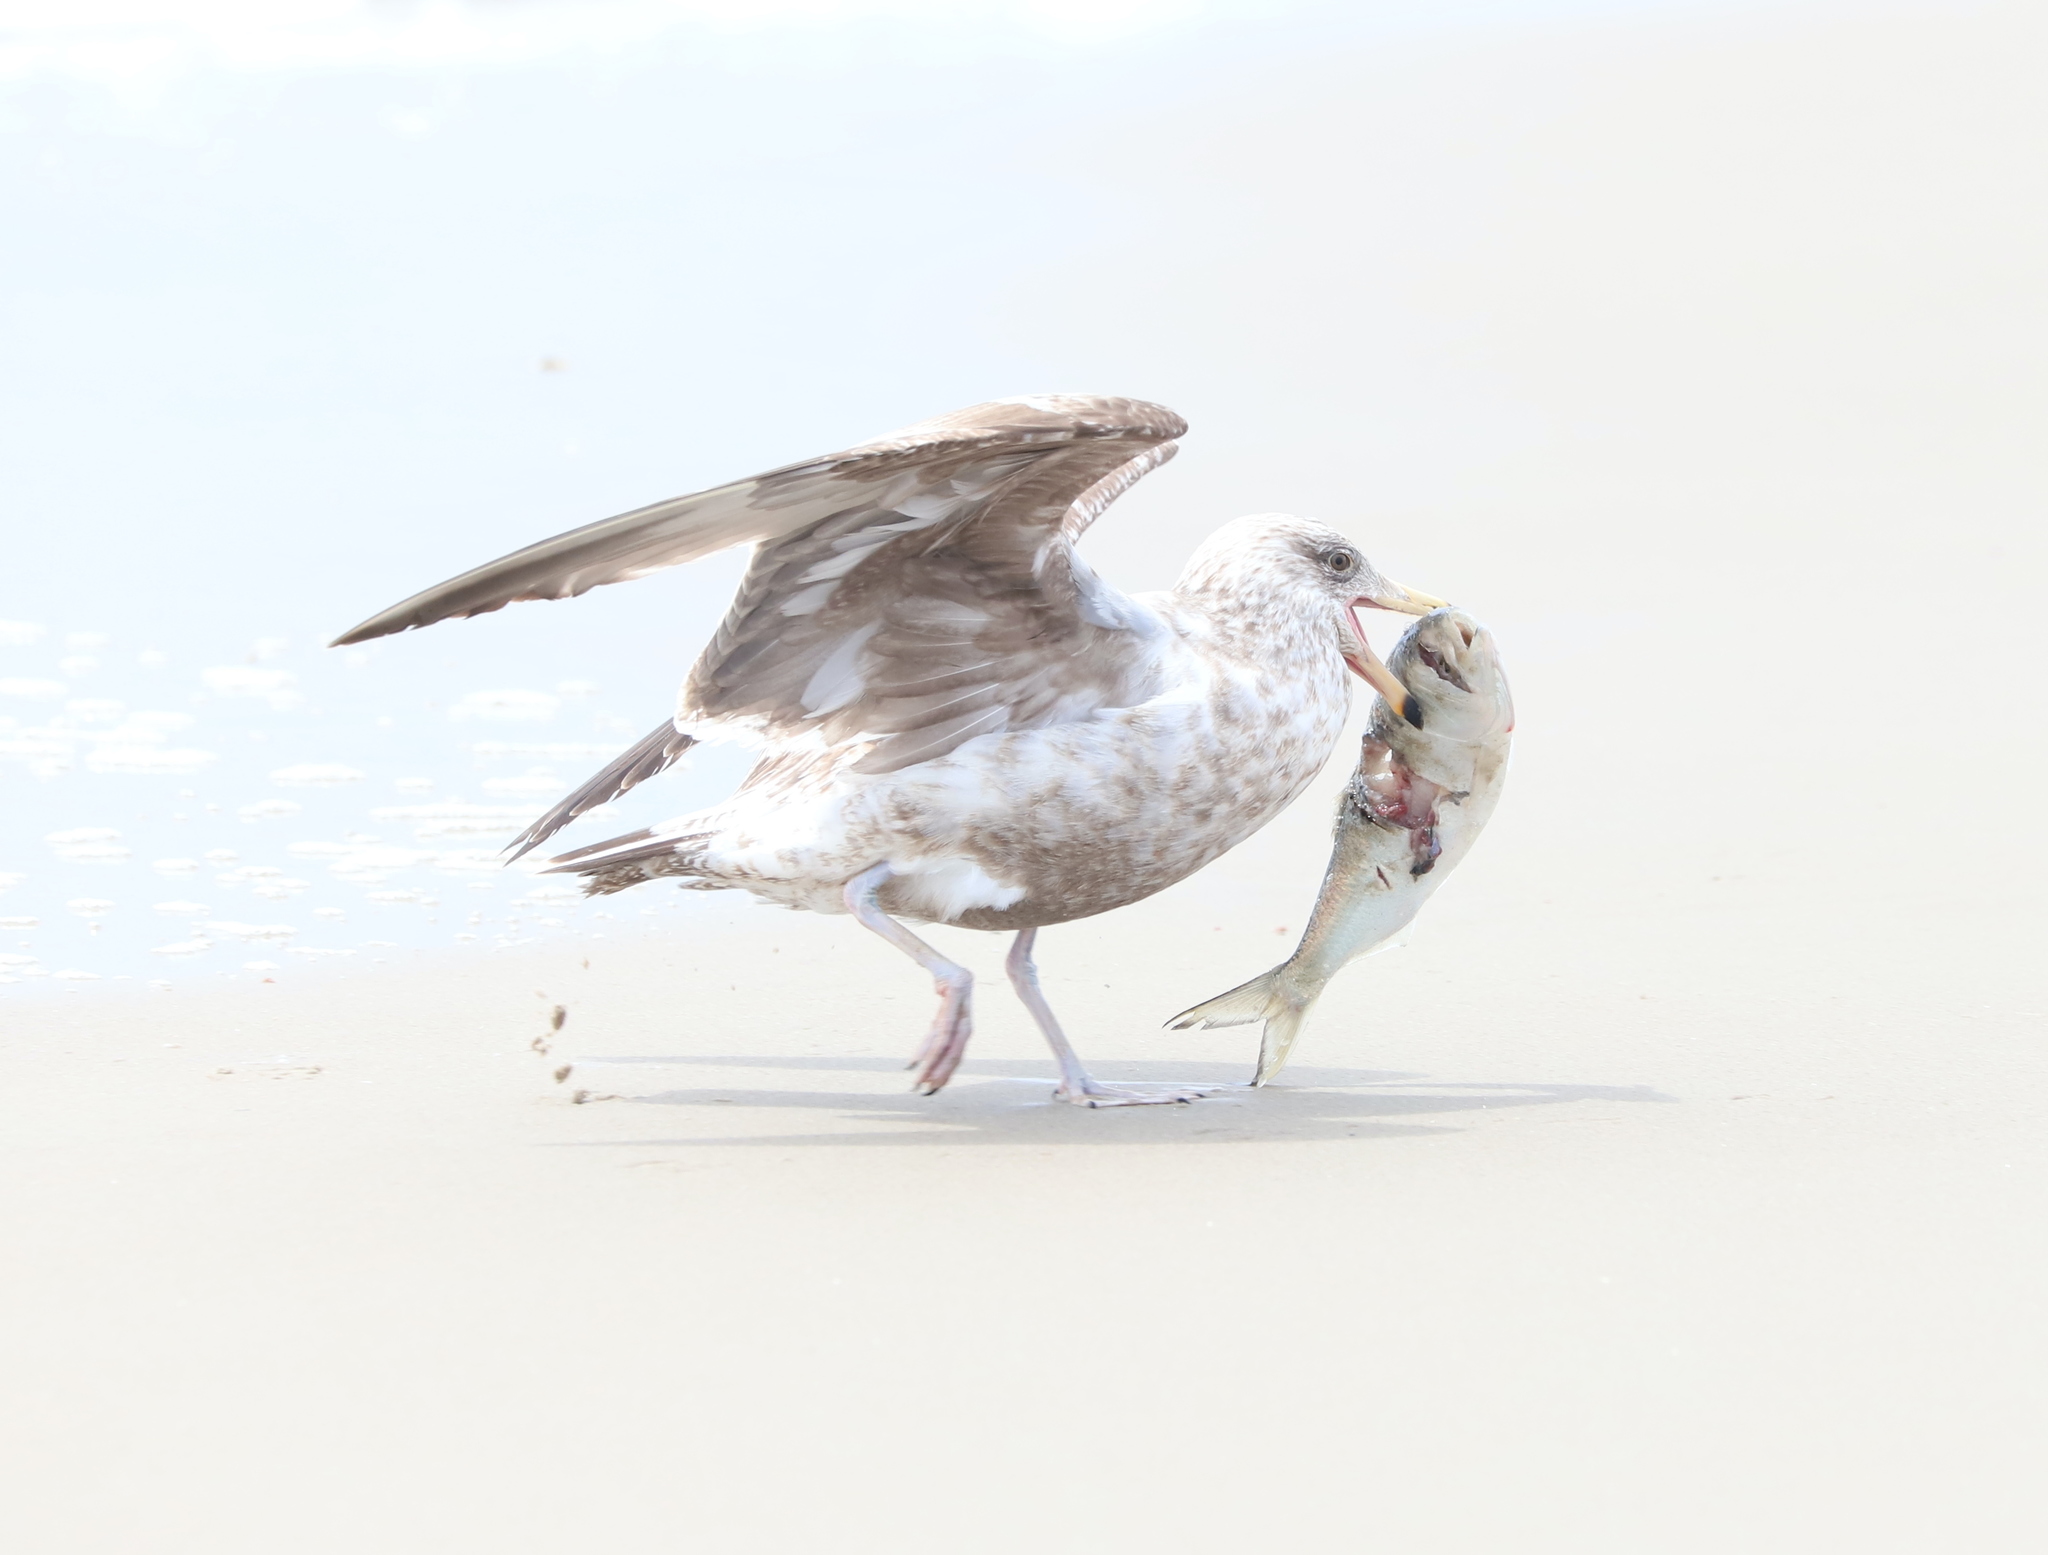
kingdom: Animalia
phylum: Chordata
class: Aves
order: Charadriiformes
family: Laridae
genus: Larus
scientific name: Larus argentatus
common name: Herring gull
